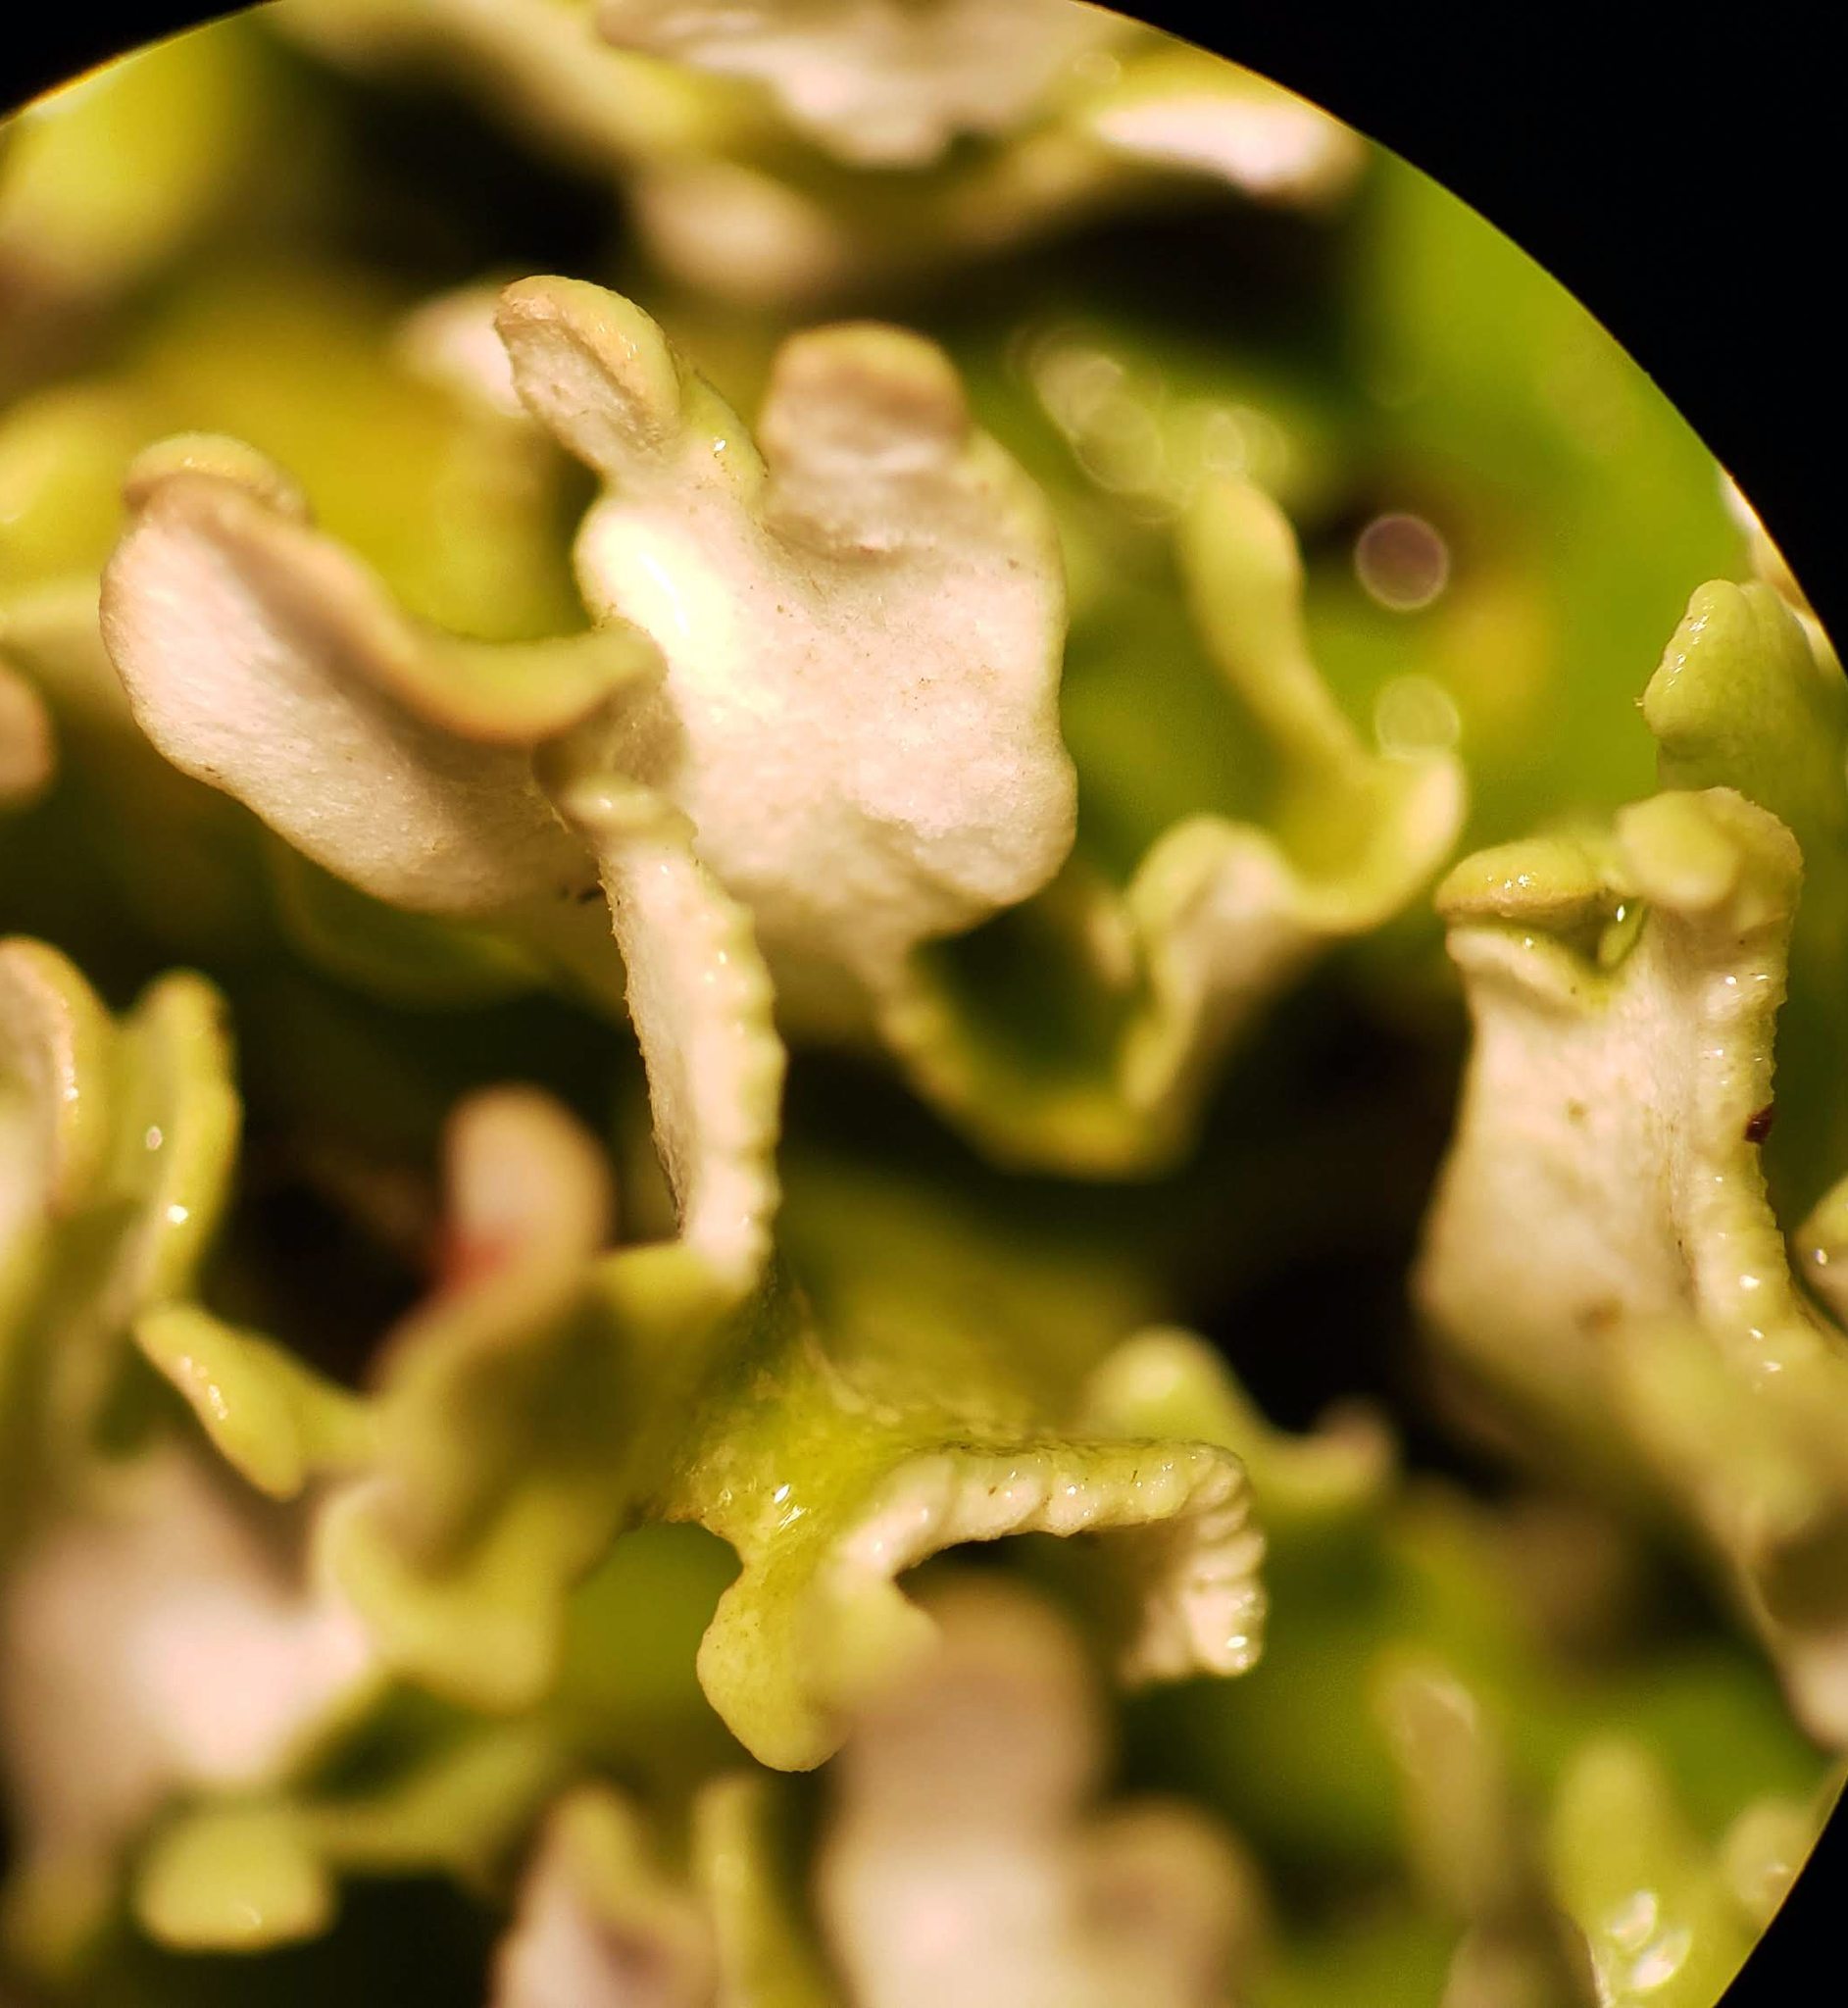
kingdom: Fungi
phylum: Ascomycota
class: Lecanoromycetes
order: Lecanorales
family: Cladoniaceae
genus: Cladonia
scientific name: Cladonia apodocarpa
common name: Stalkless cladonia
